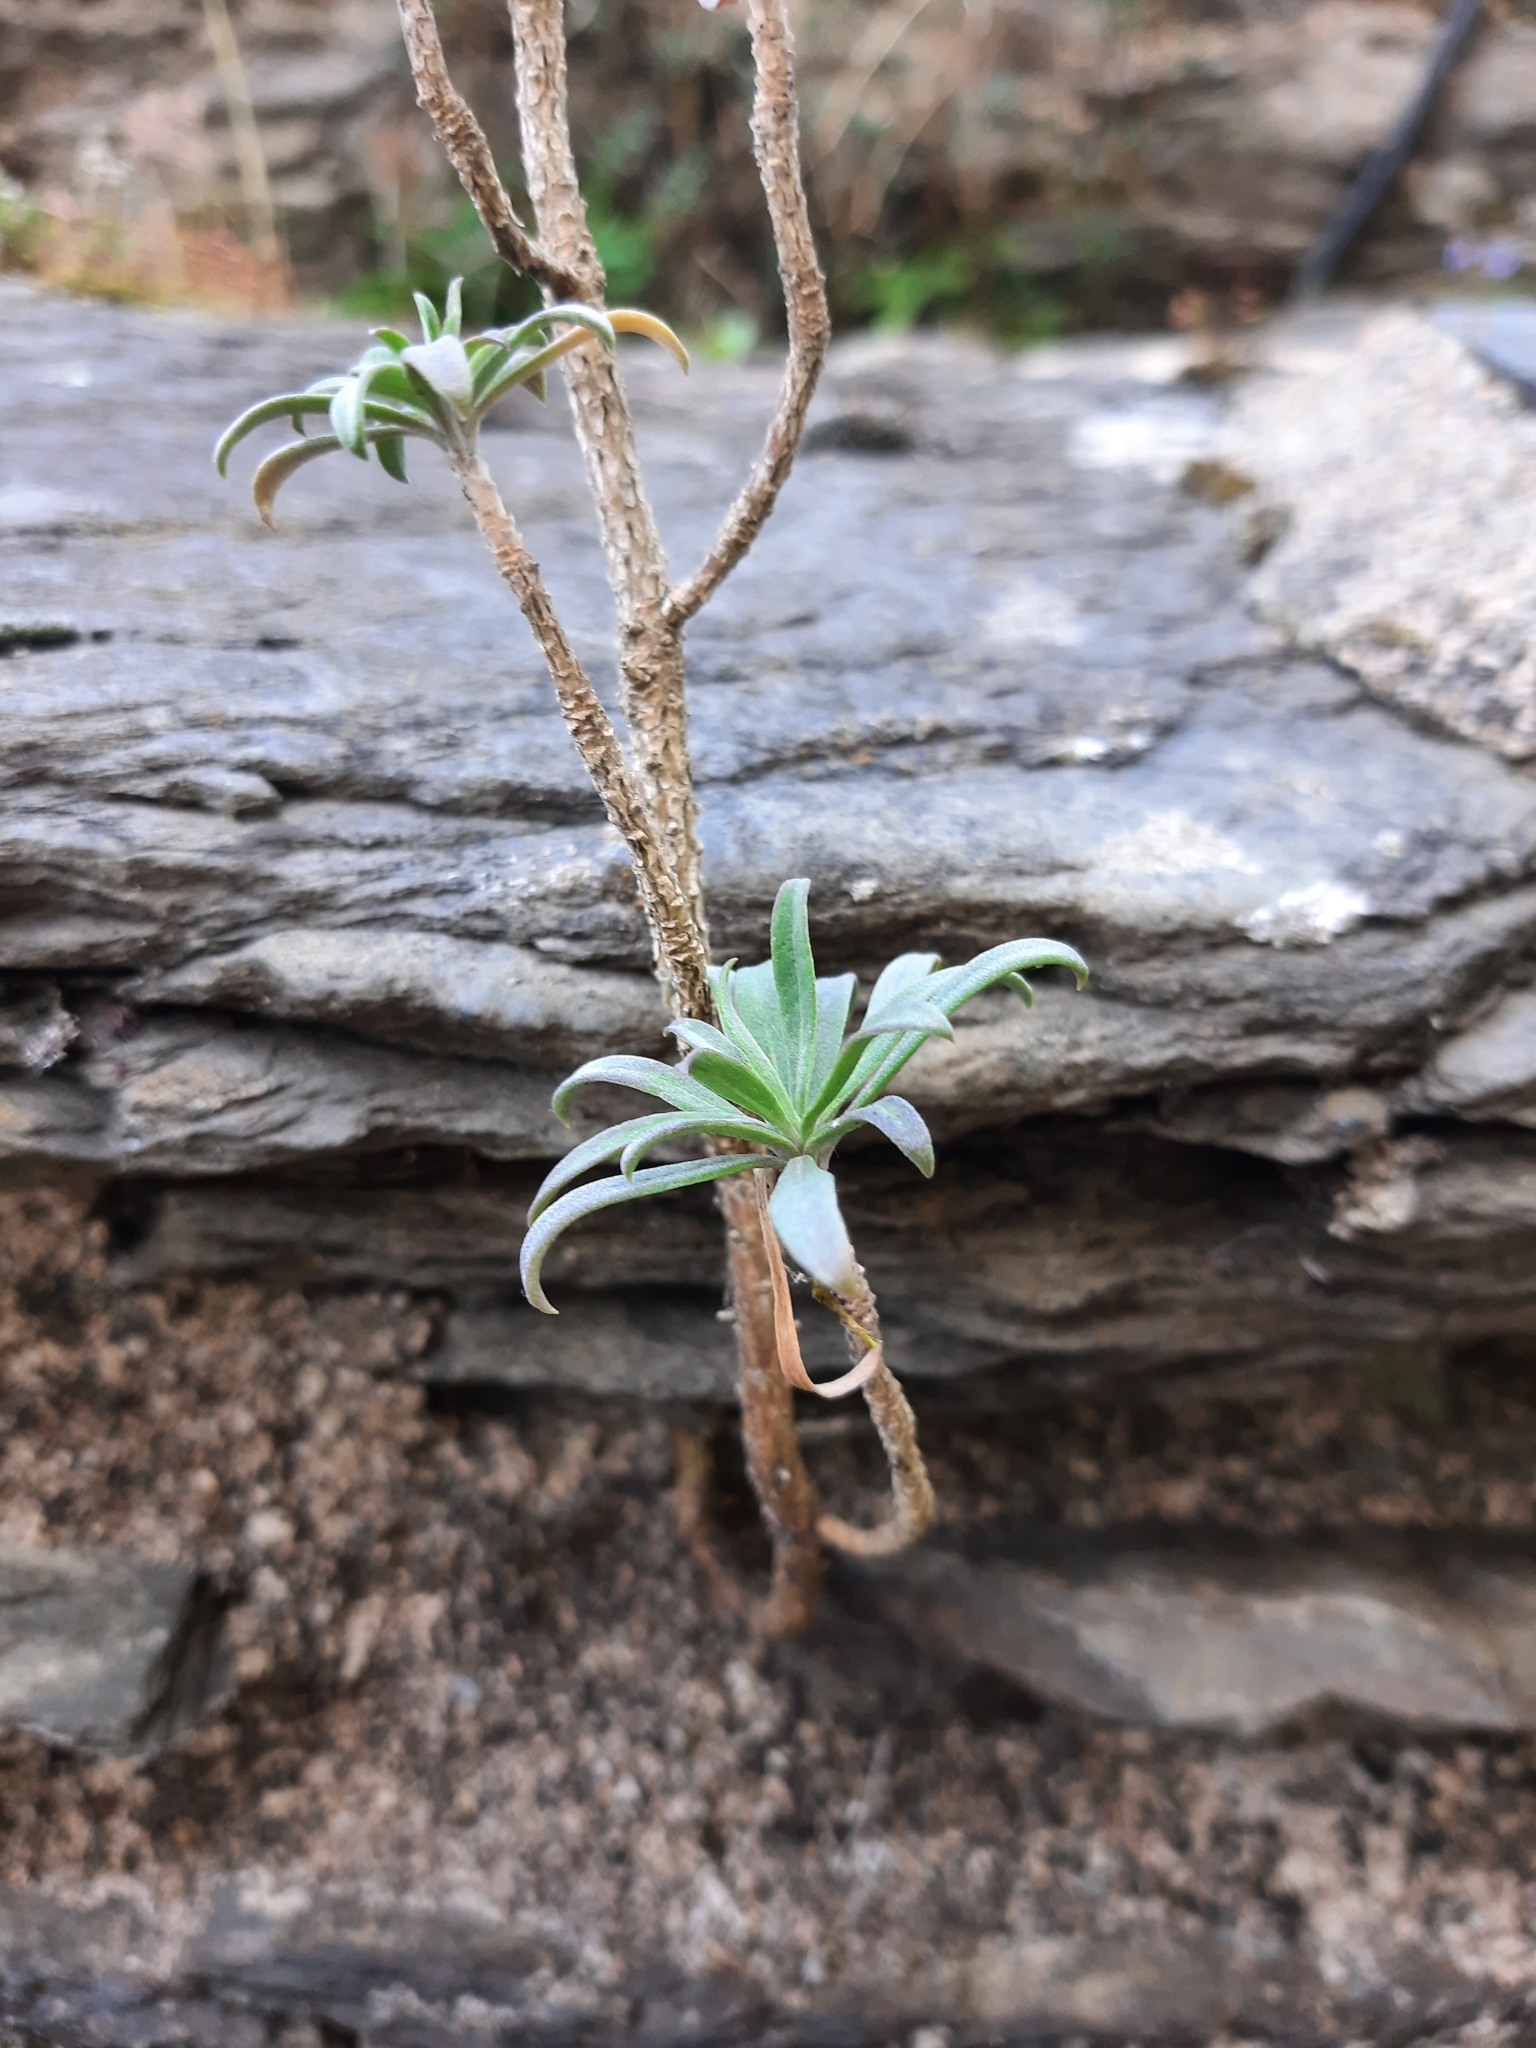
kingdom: Plantae
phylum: Tracheophyta
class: Magnoliopsida
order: Brassicales
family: Brassicaceae
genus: Erysimum
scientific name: Erysimum cheiri
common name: Wallflower
